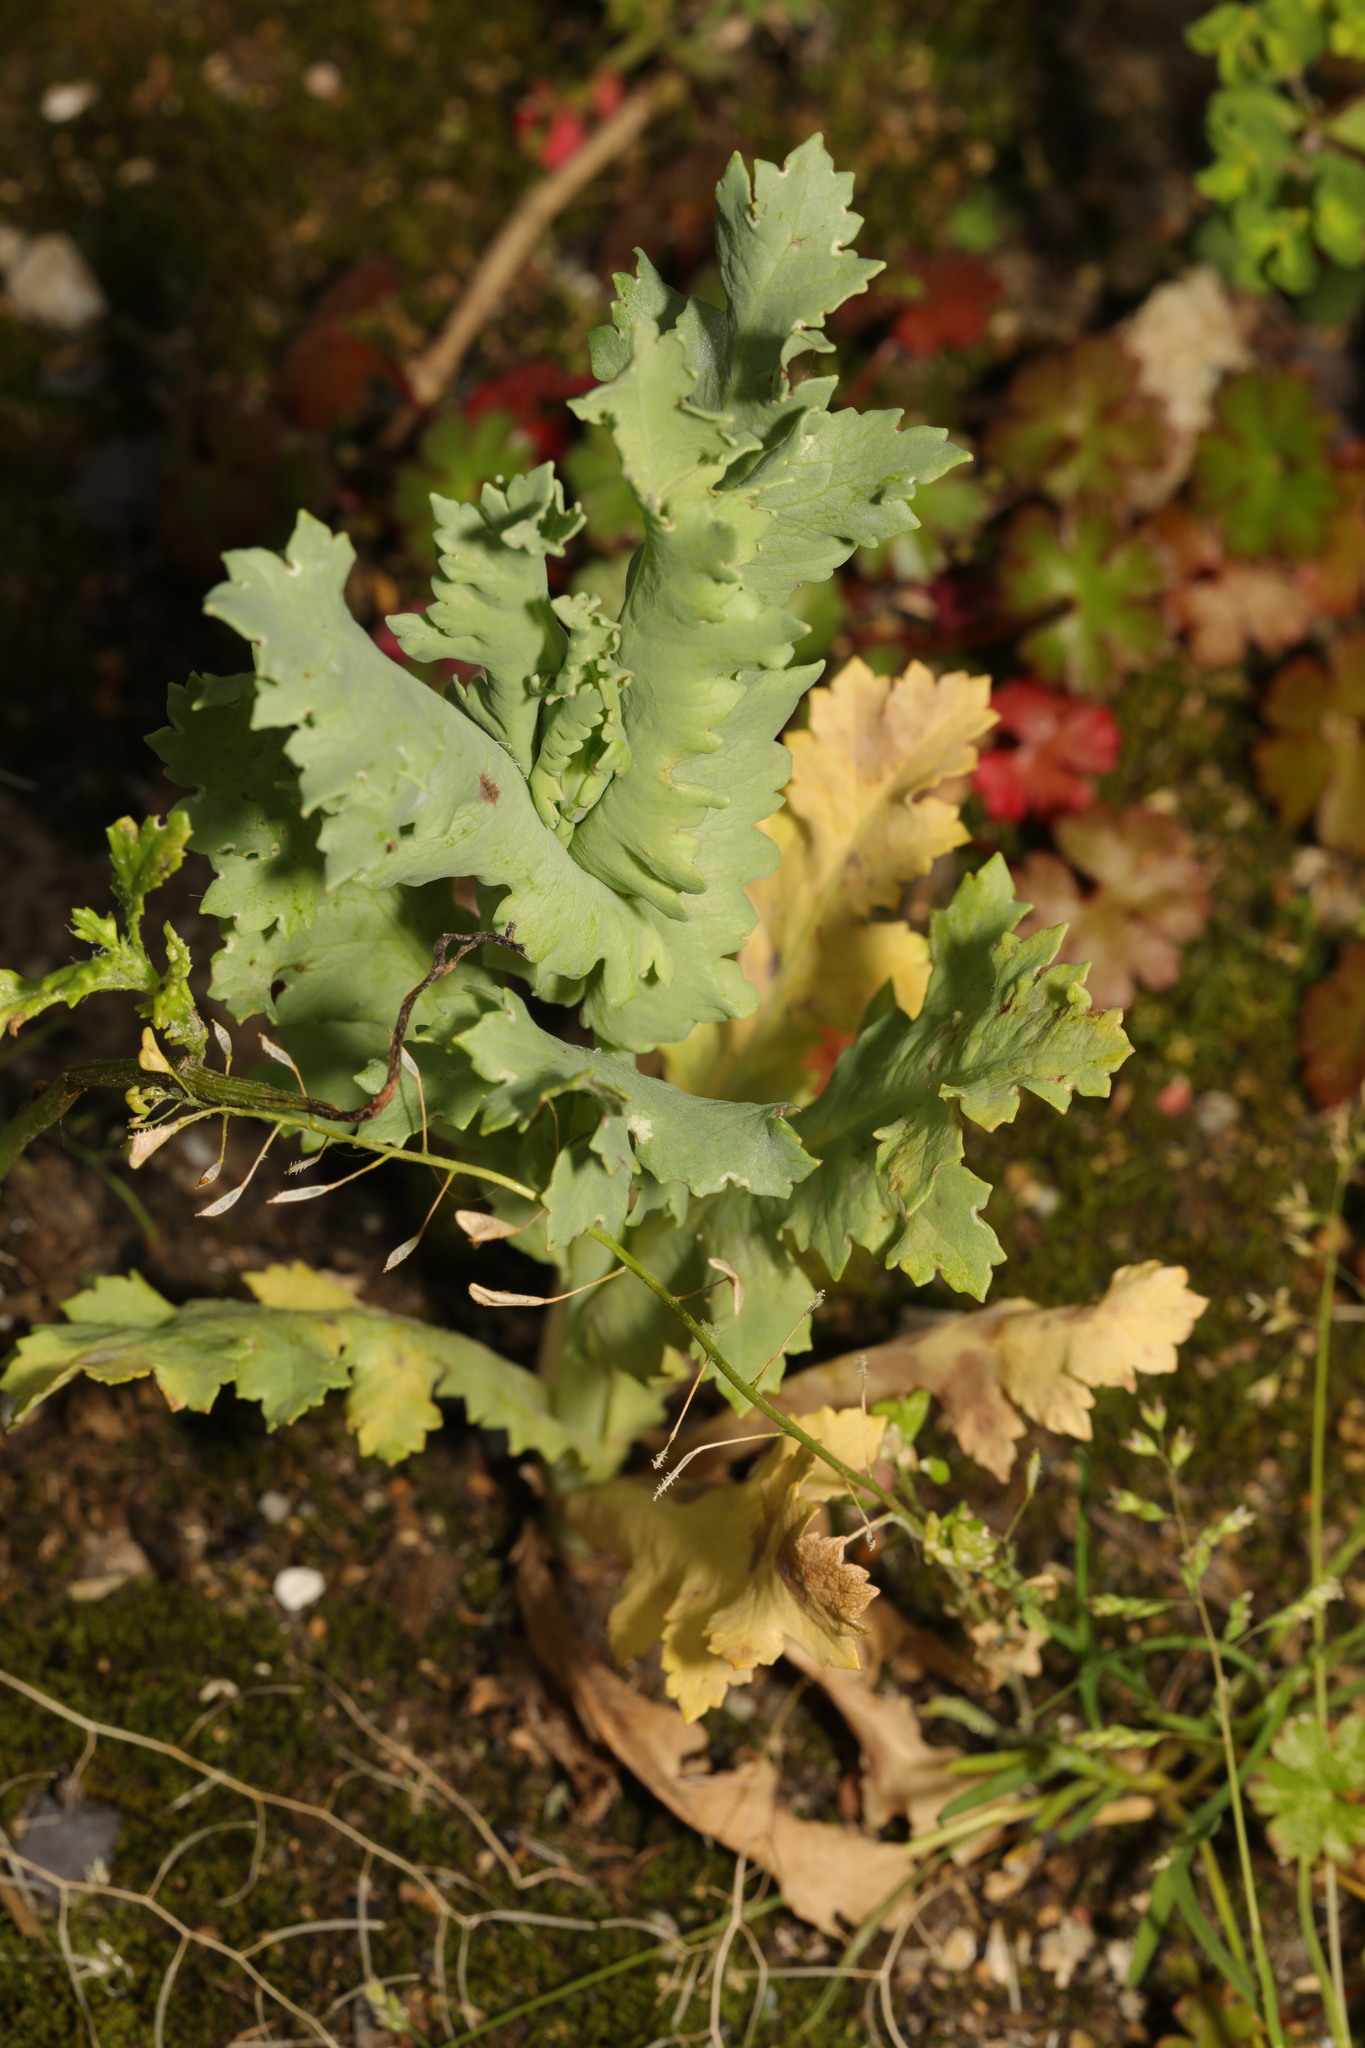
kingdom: Plantae
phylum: Tracheophyta
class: Magnoliopsida
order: Ranunculales
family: Papaveraceae
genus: Papaver
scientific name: Papaver somniferum
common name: Opium poppy
